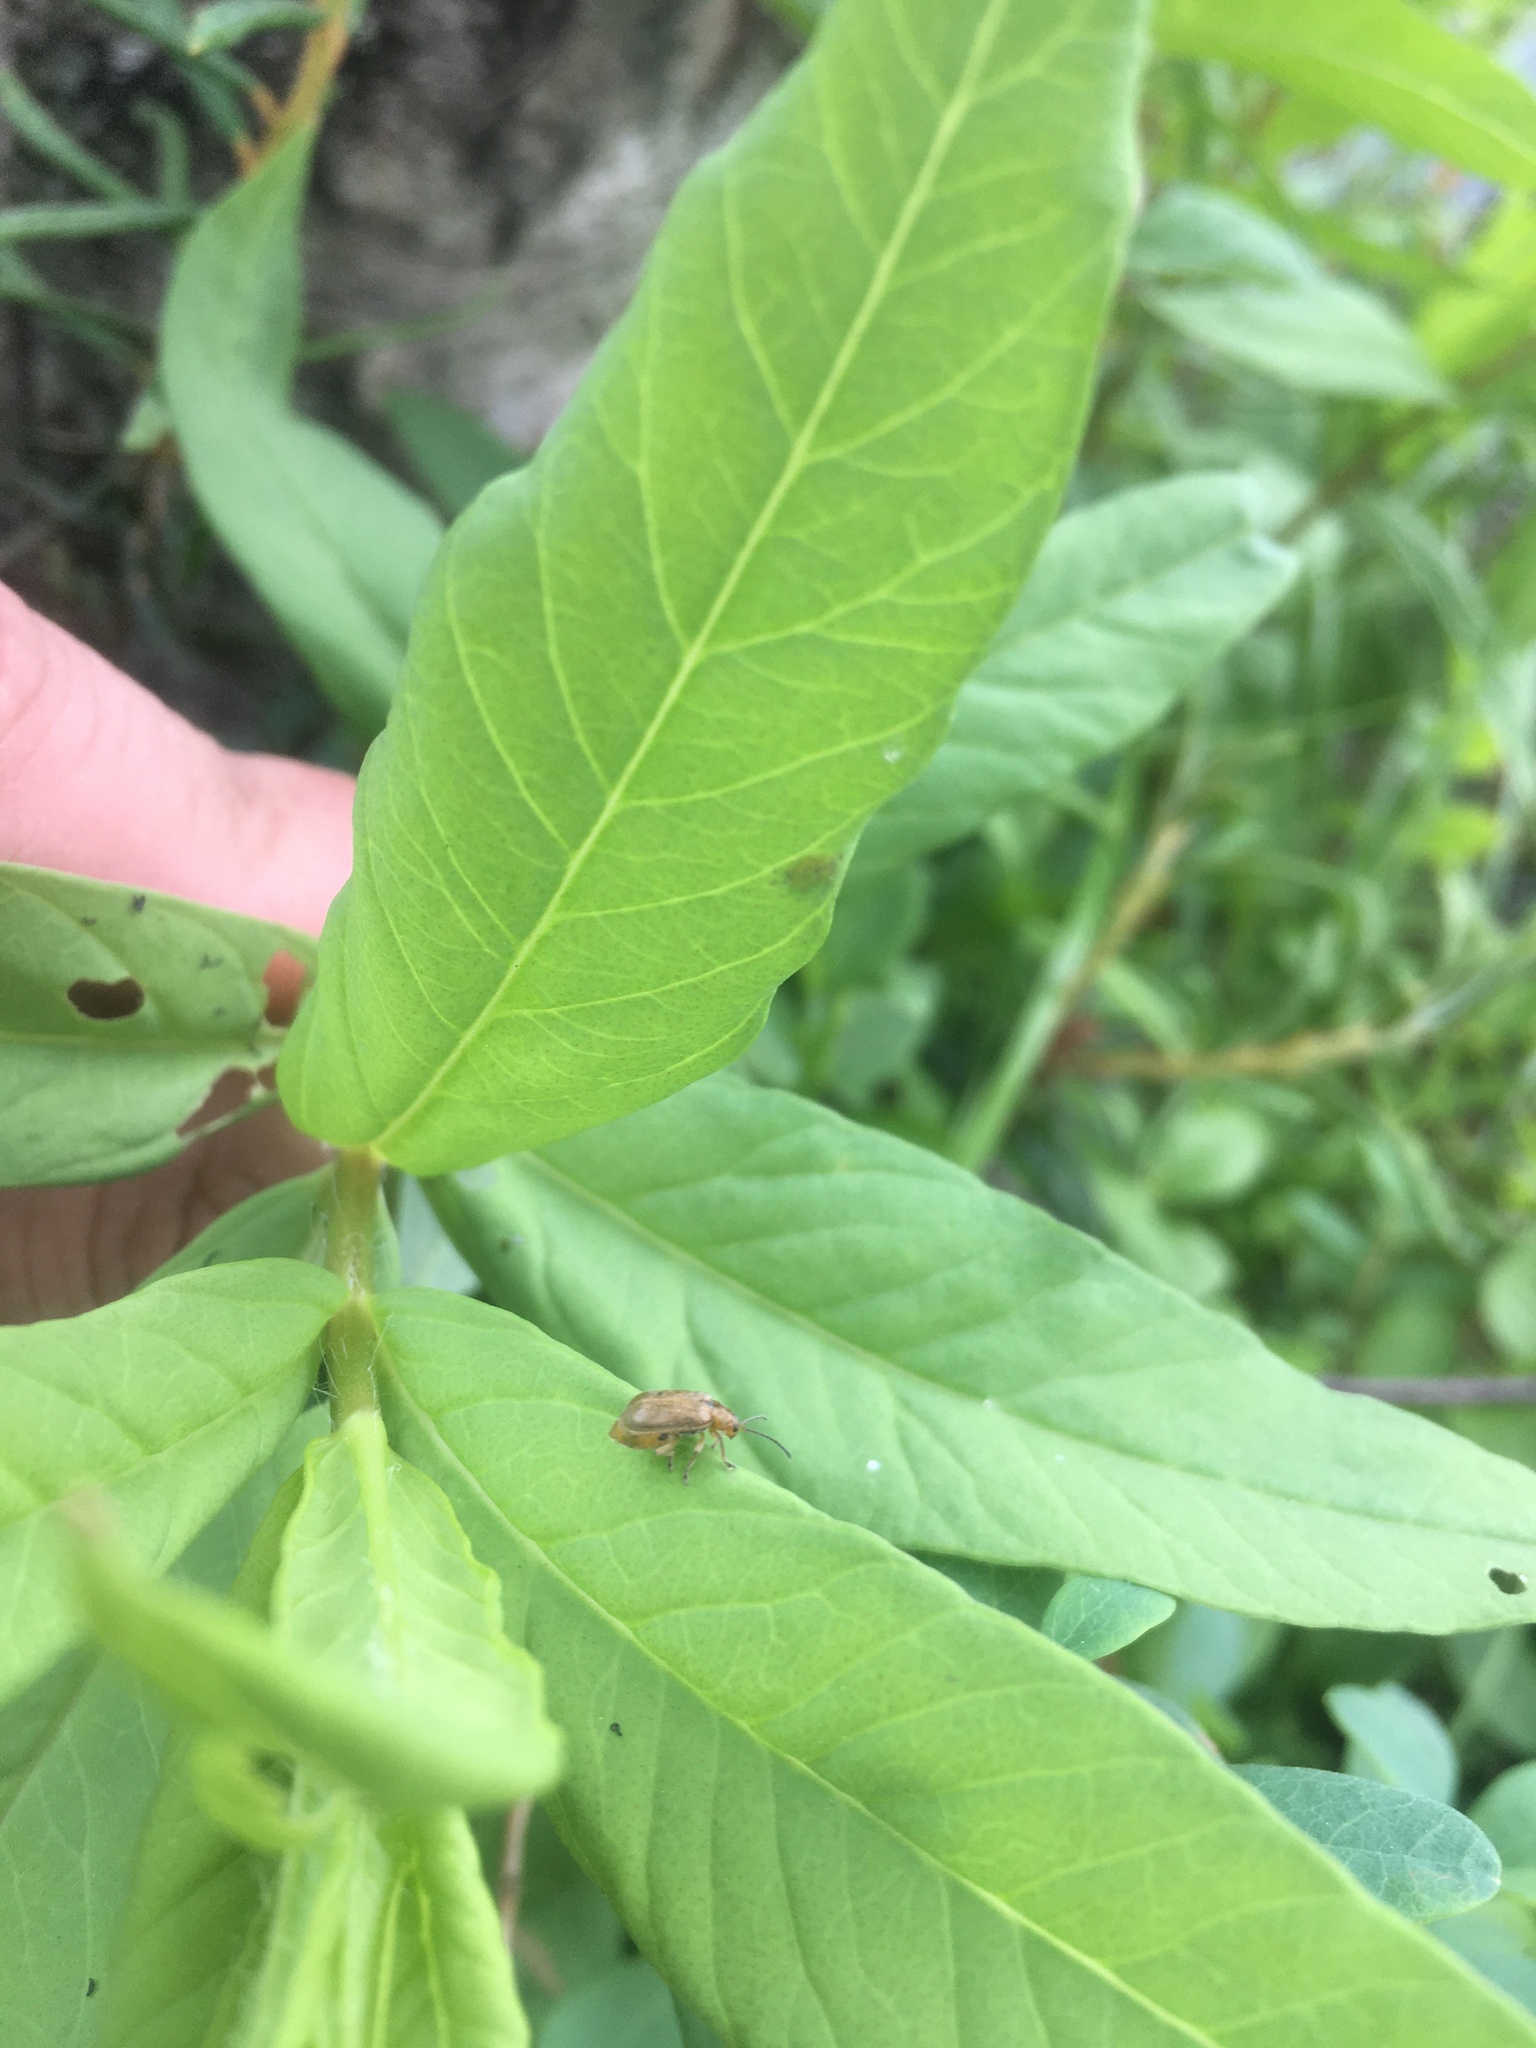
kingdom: Animalia
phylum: Arthropoda
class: Insecta
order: Coleoptera
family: Chrysomelidae
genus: Pyrrhalta
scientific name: Pyrrhalta viburni
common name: Guelder-rose leaf beetle
